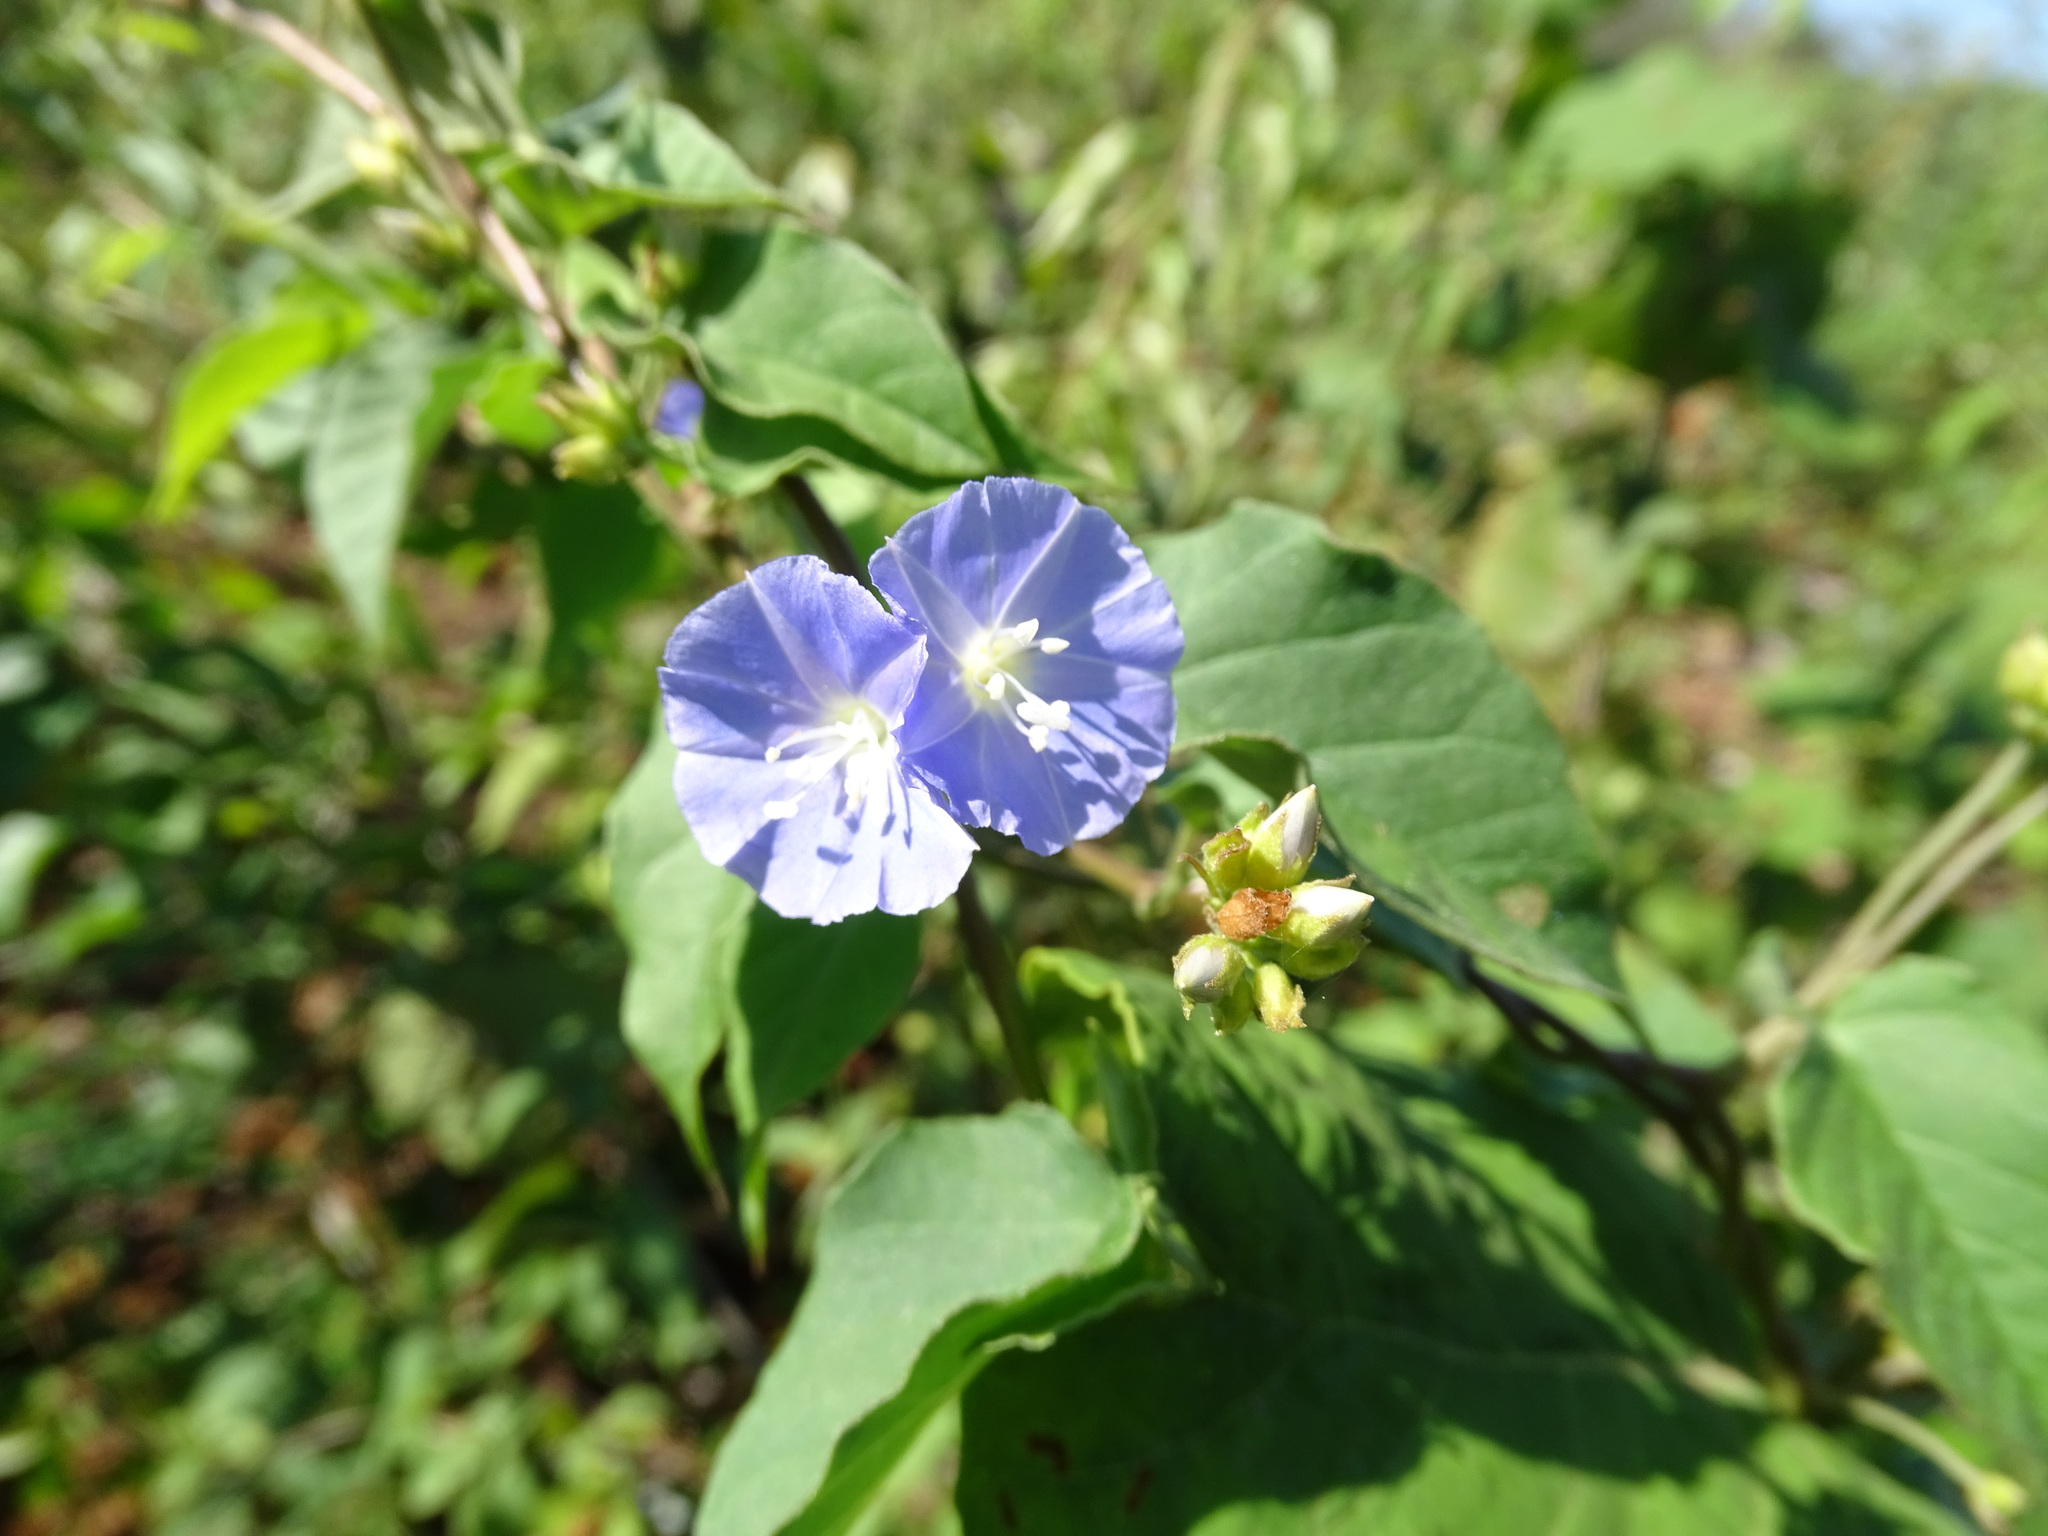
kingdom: Plantae
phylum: Tracheophyta
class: Magnoliopsida
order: Solanales
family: Convolvulaceae
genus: Jacquemontia
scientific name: Jacquemontia pentanthos
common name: Skyblue clustervine
